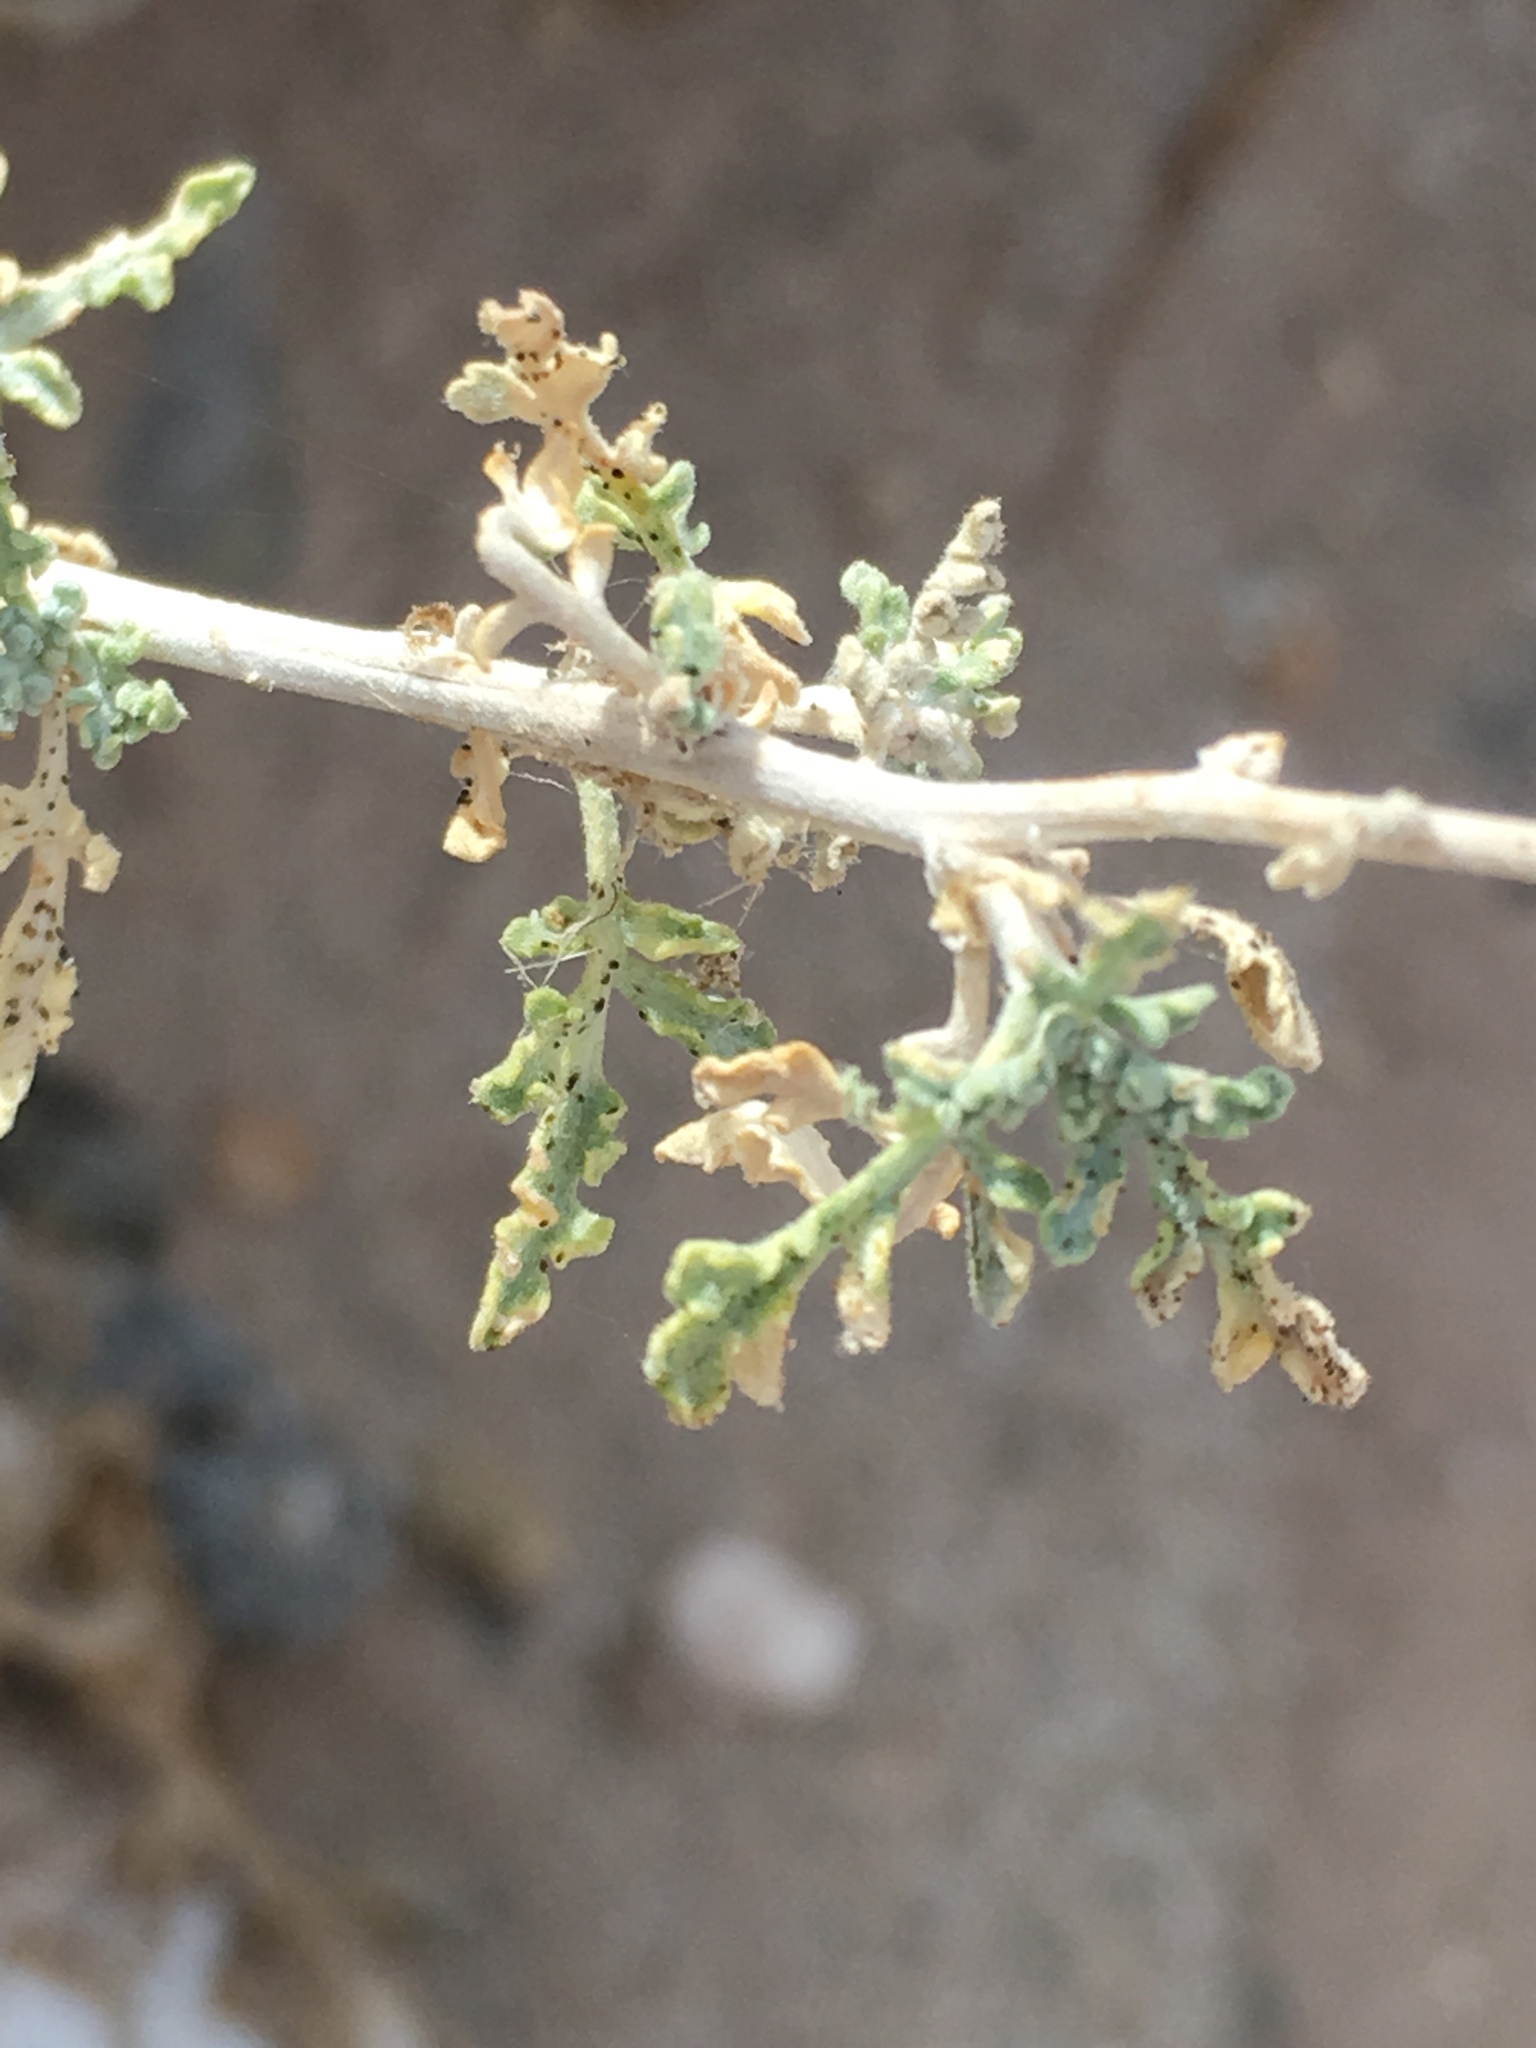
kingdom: Plantae
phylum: Tracheophyta
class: Magnoliopsida
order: Asterales
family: Asteraceae
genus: Ambrosia
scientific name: Ambrosia dumosa
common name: Bur-sage
